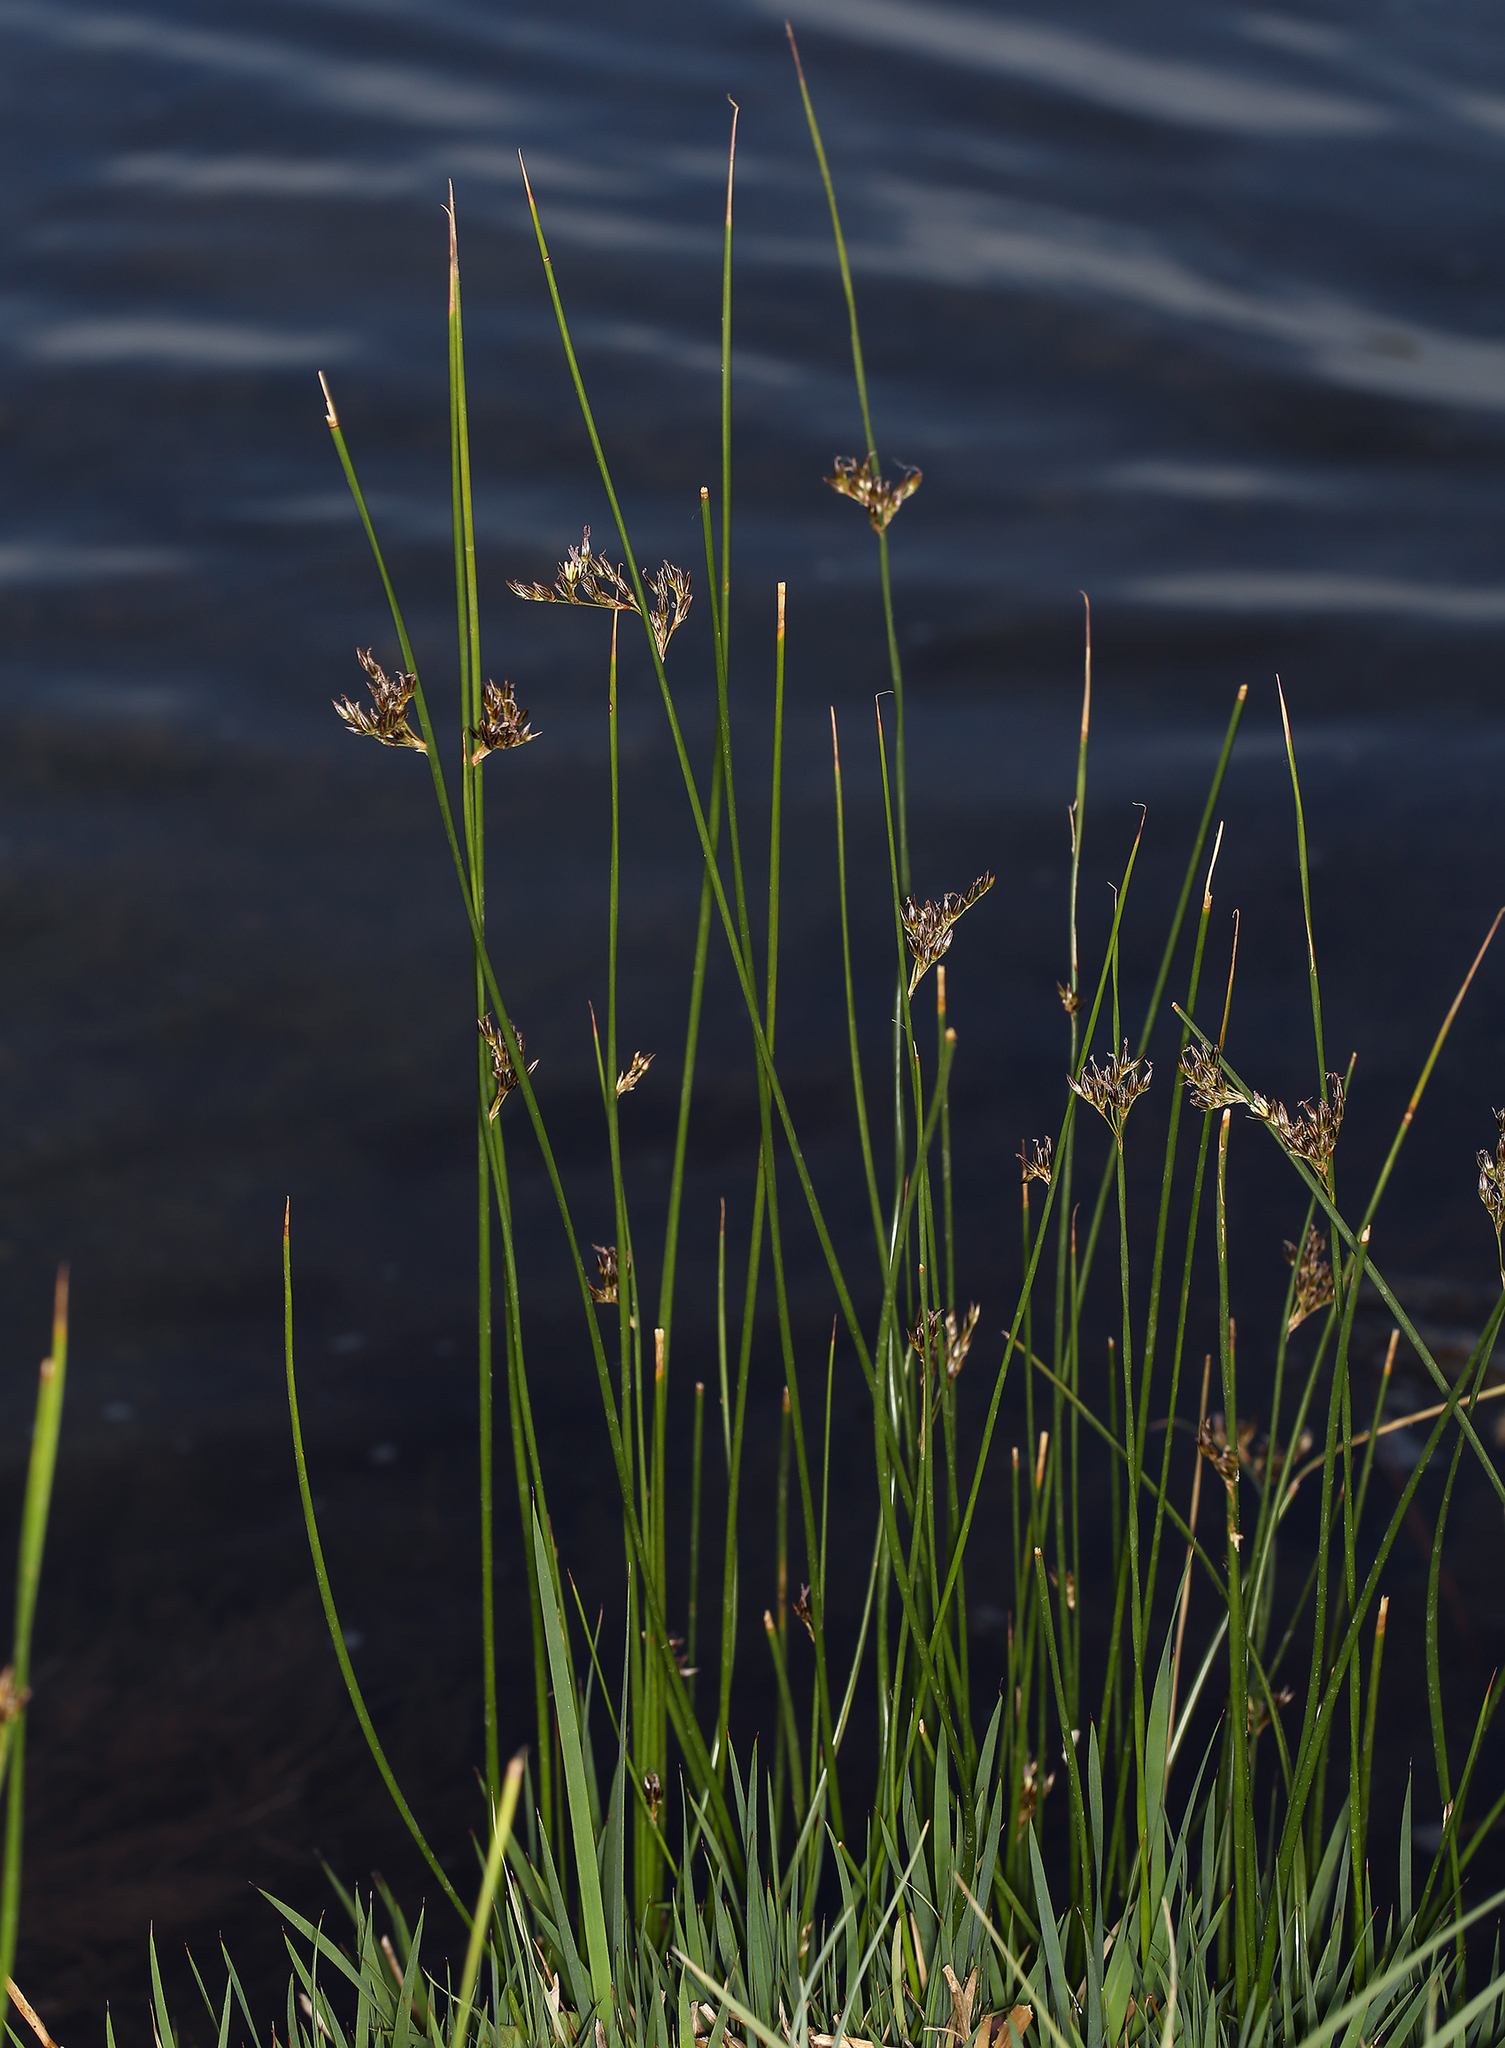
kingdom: Plantae
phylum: Tracheophyta
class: Liliopsida
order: Poales
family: Juncaceae
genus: Juncus
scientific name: Juncus balticus
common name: Baltic rush
